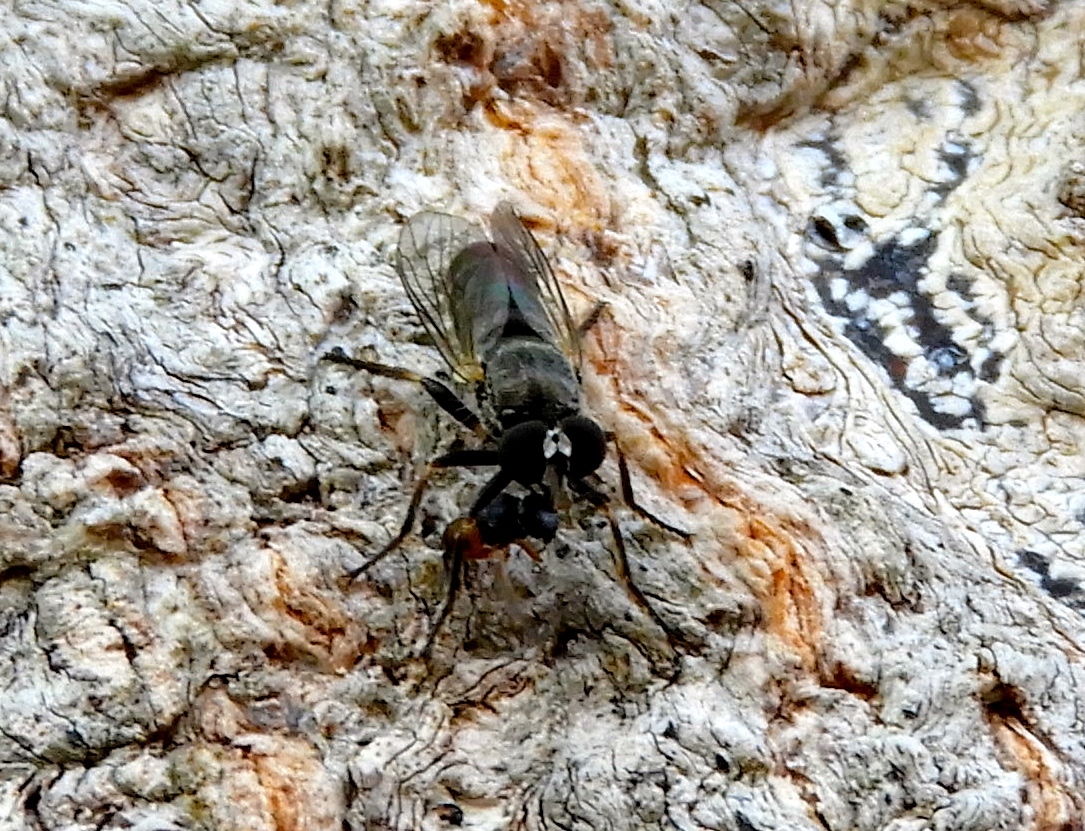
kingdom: Animalia
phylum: Arthropoda
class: Insecta
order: Diptera
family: Asilidae
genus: Atomosia
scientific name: Atomosia
